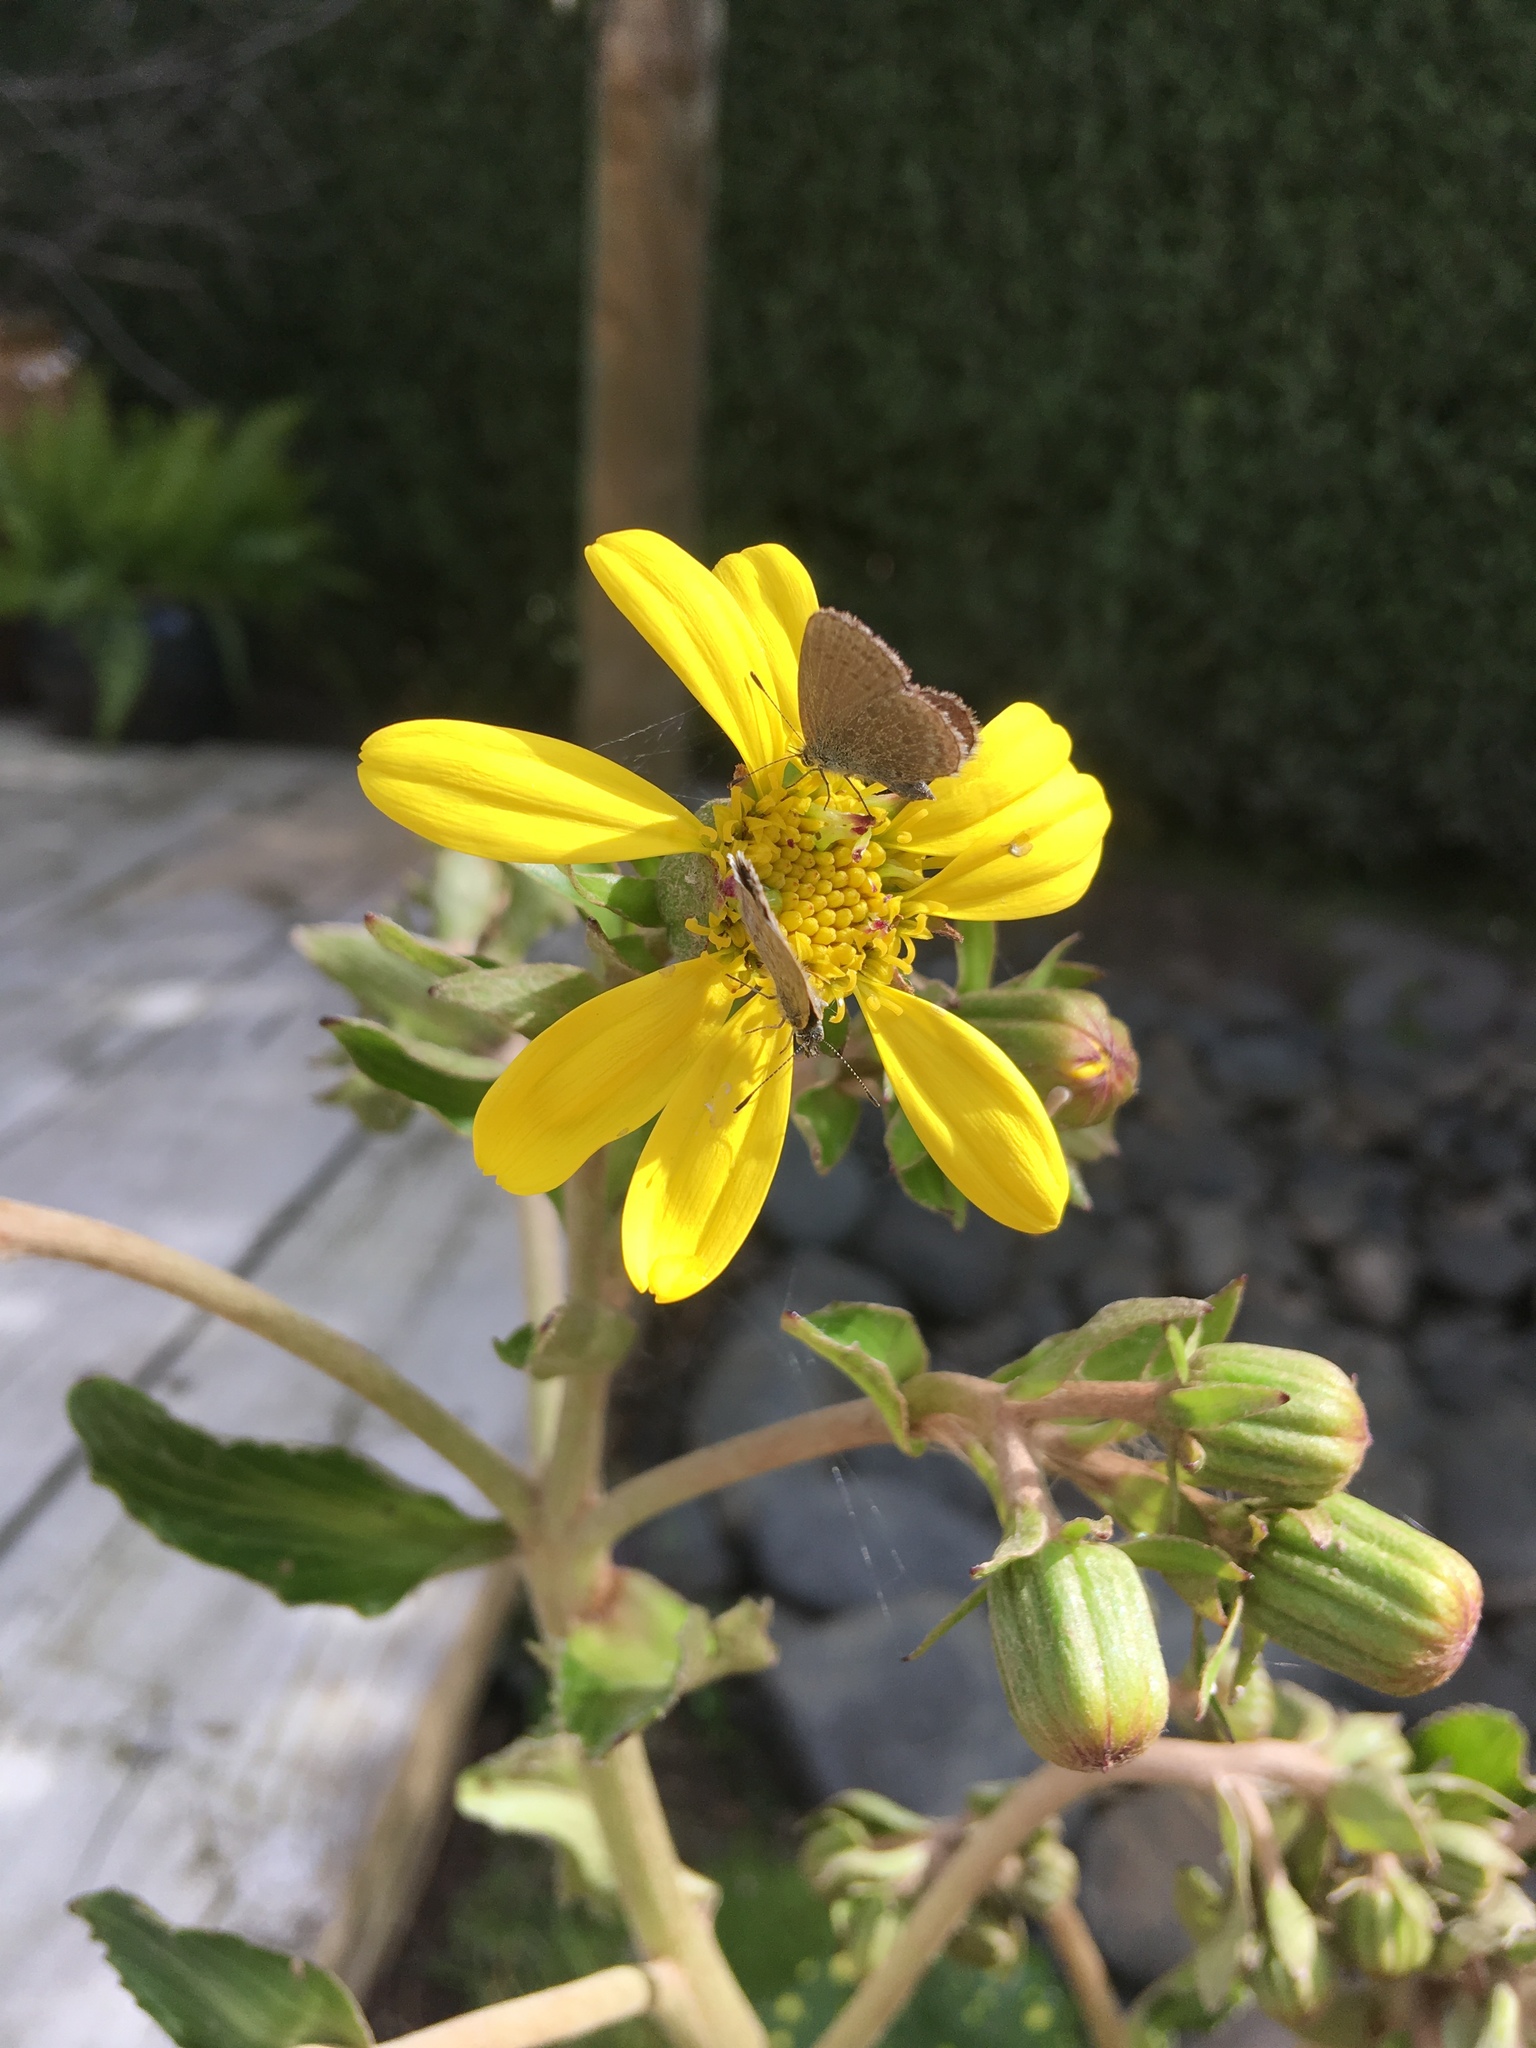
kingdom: Animalia
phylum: Arthropoda
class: Insecta
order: Lepidoptera
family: Lycaenidae
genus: Zizina
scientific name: Zizina labradus
